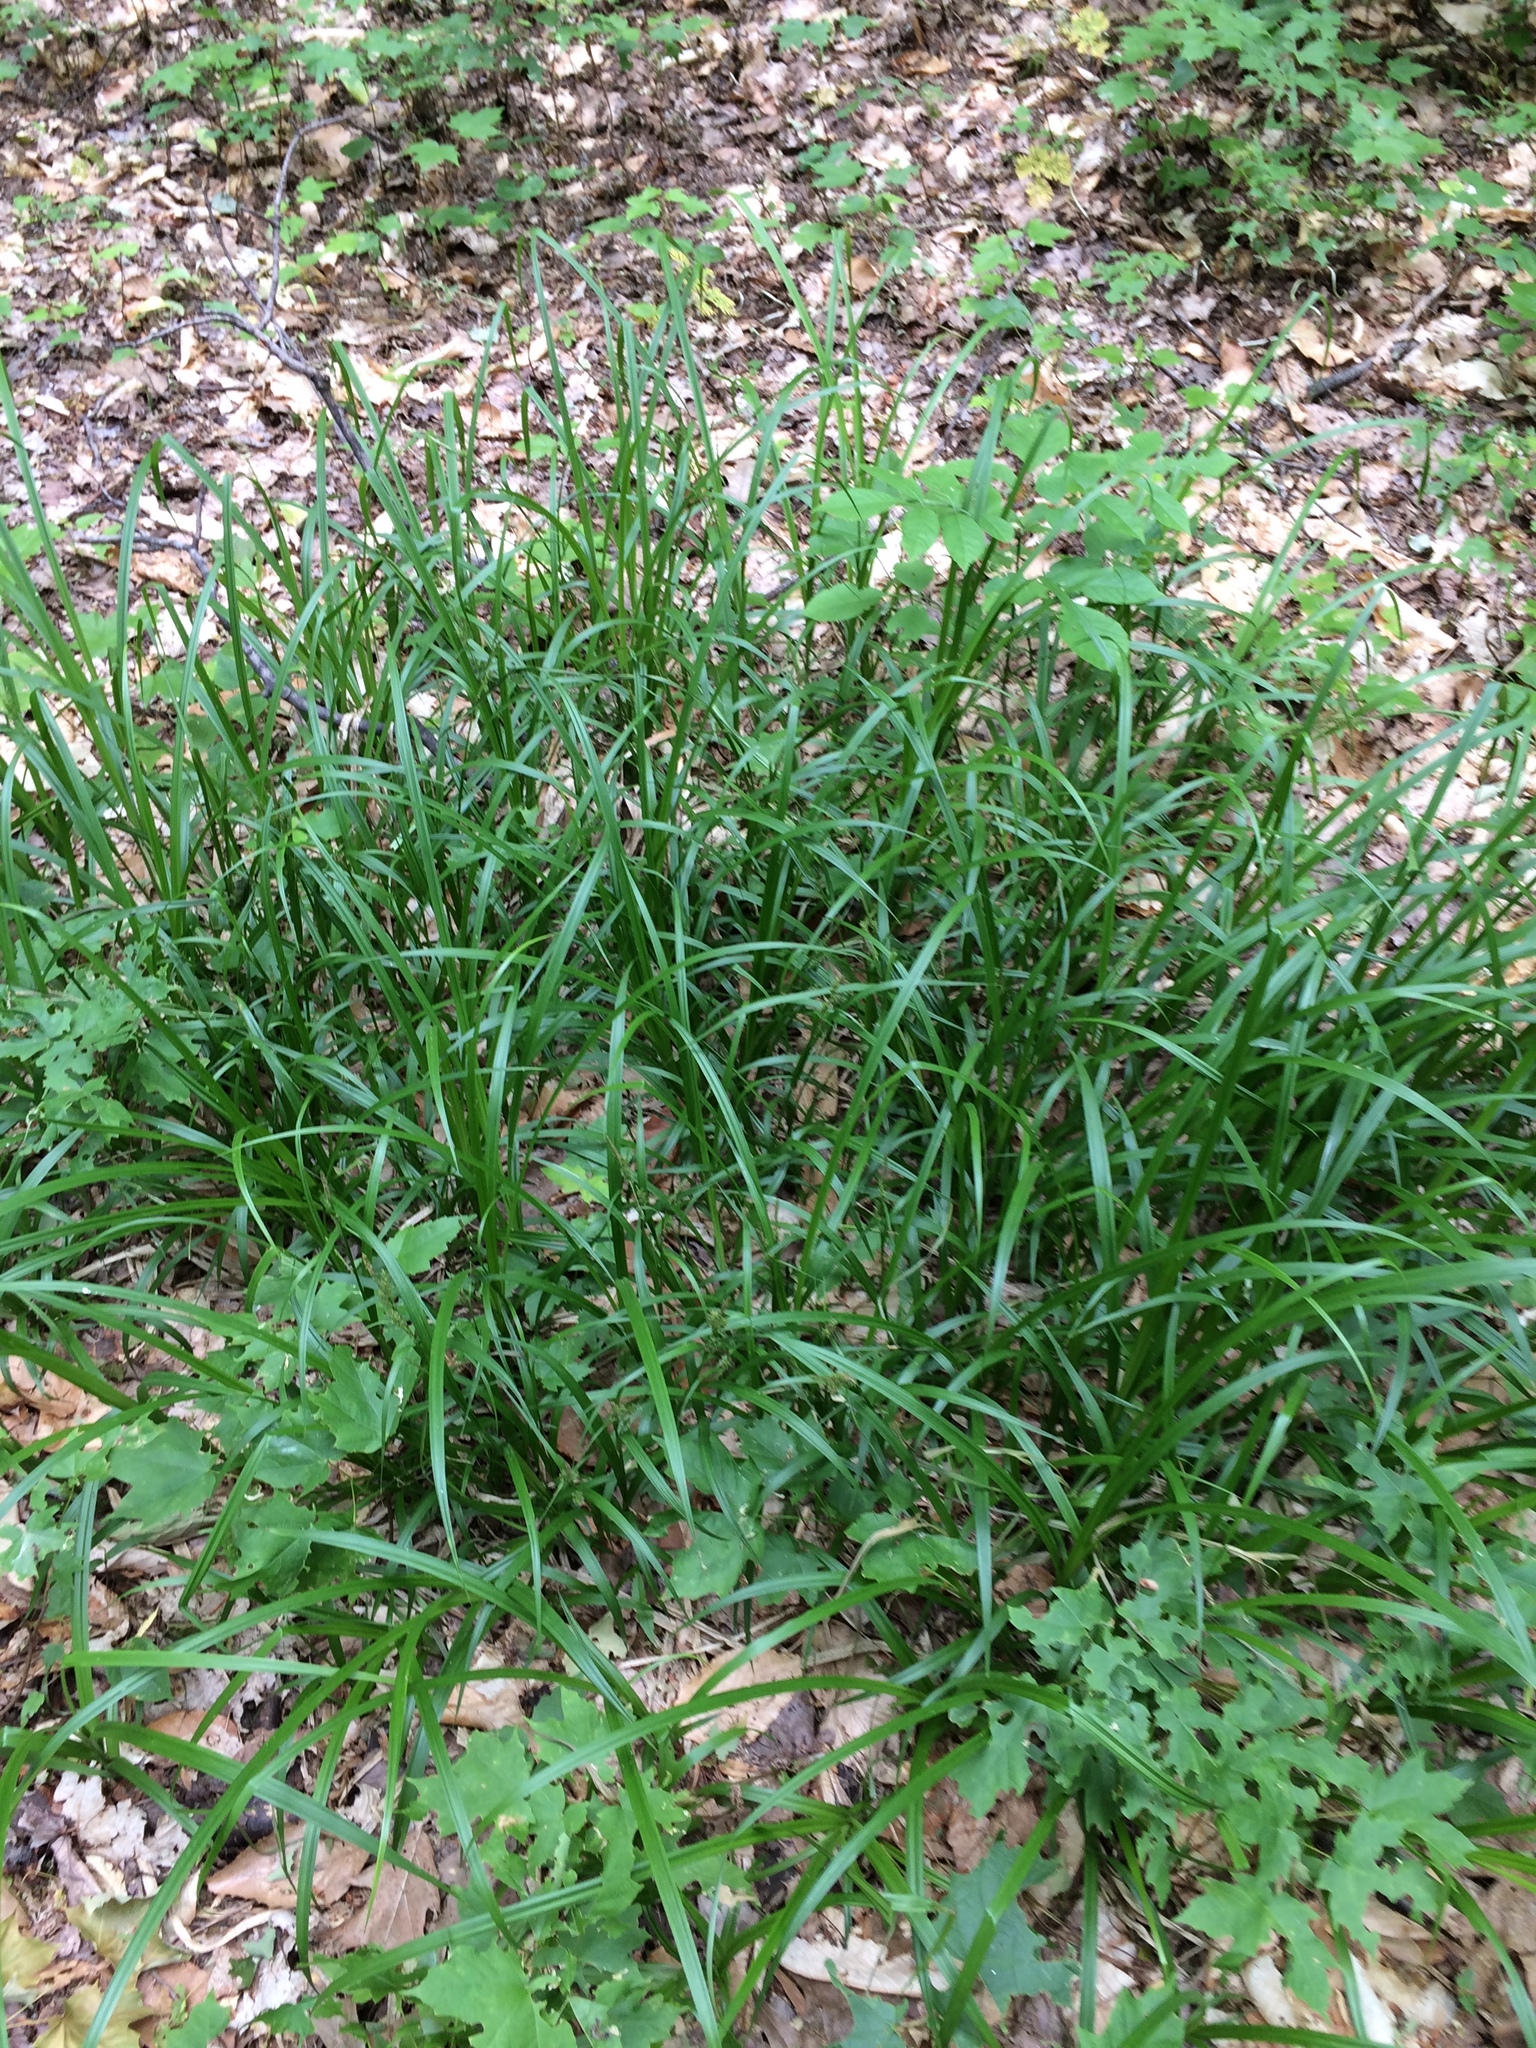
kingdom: Plantae
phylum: Tracheophyta
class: Liliopsida
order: Poales
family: Cyperaceae
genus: Carex
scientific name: Carex scabrata
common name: Eastern rough sedge
